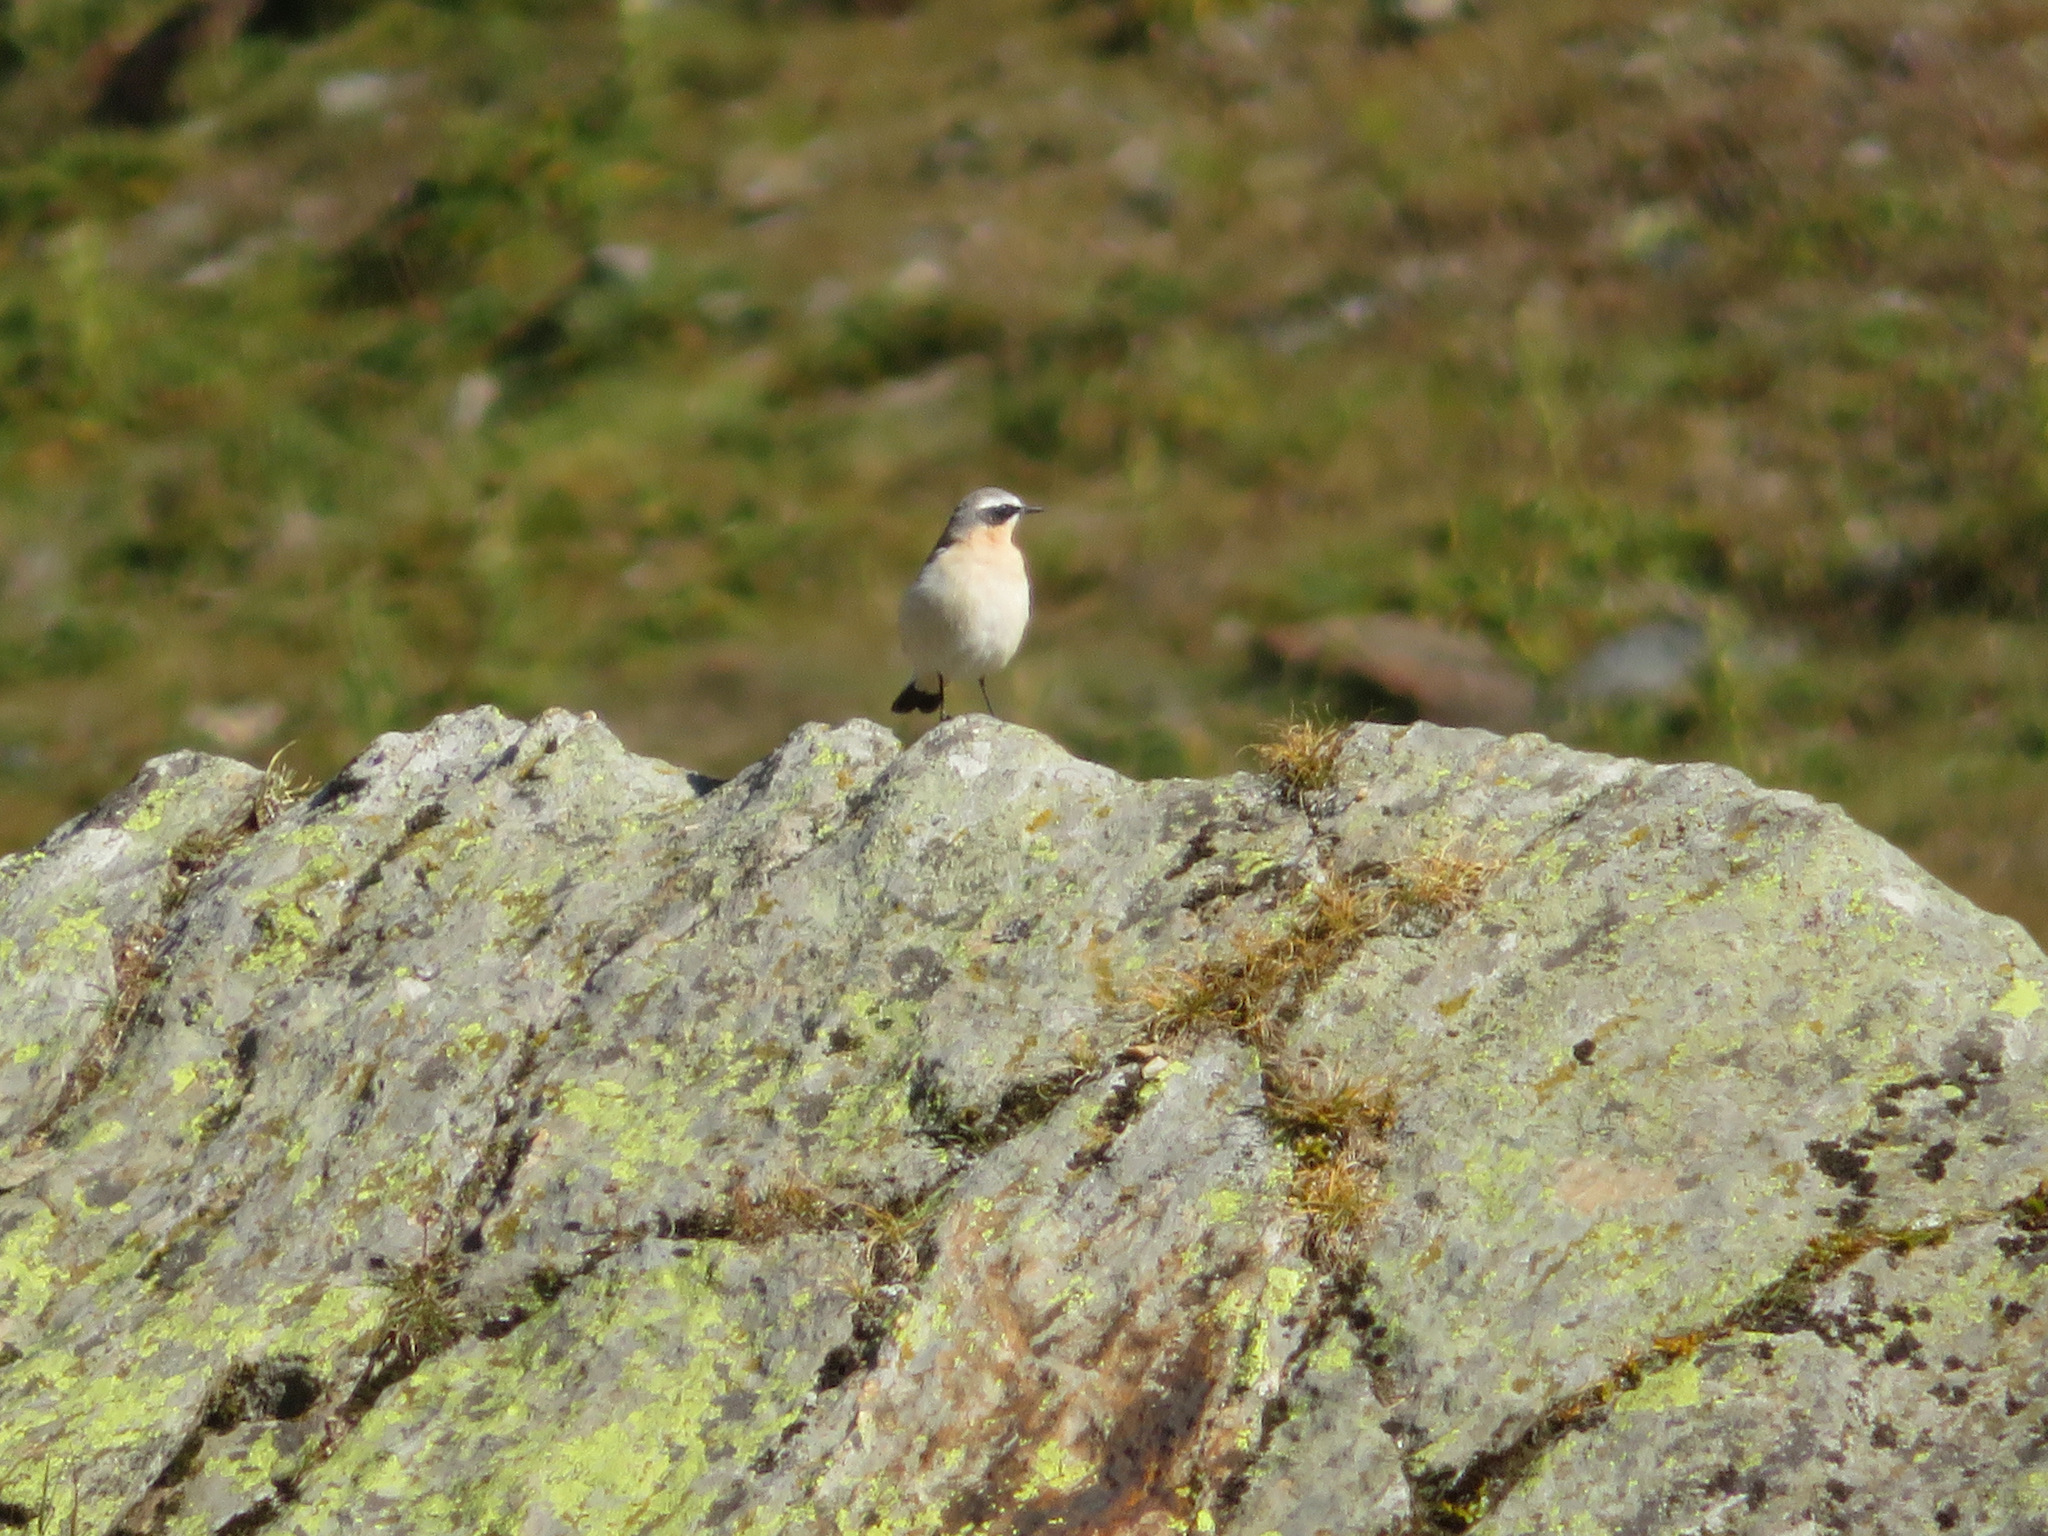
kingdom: Animalia
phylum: Chordata
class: Aves
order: Passeriformes
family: Muscicapidae
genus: Oenanthe
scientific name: Oenanthe oenanthe
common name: Northern wheatear
